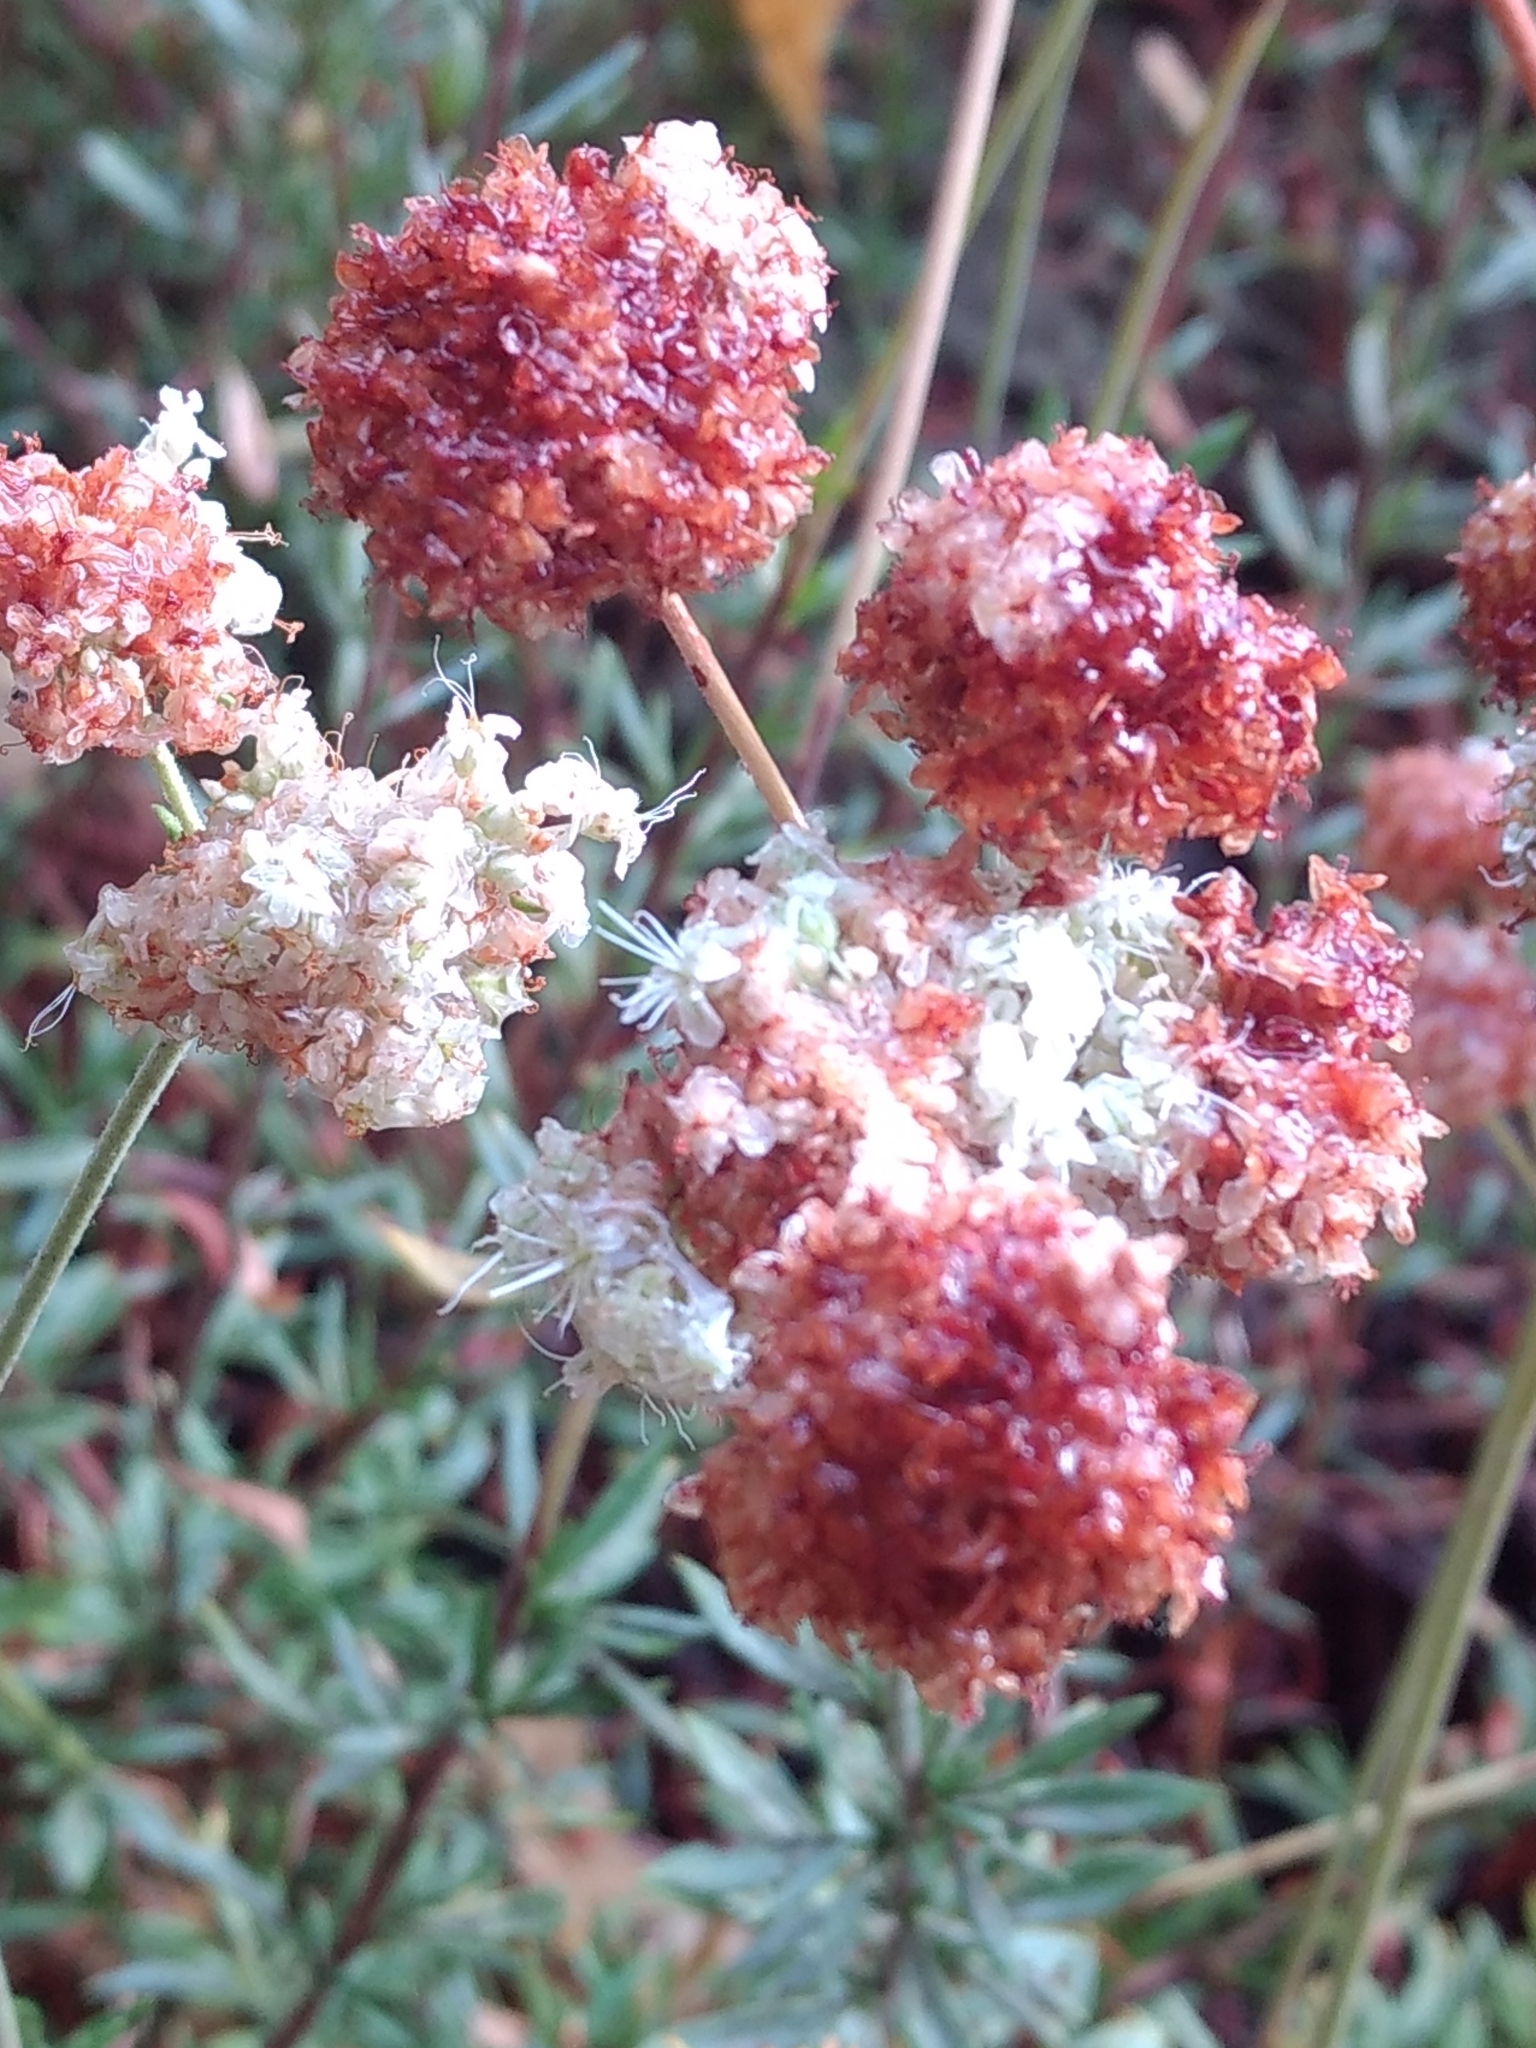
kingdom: Plantae
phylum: Tracheophyta
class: Magnoliopsida
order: Caryophyllales
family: Polygonaceae
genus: Eriogonum
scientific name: Eriogonum fasciculatum
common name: California wild buckwheat
